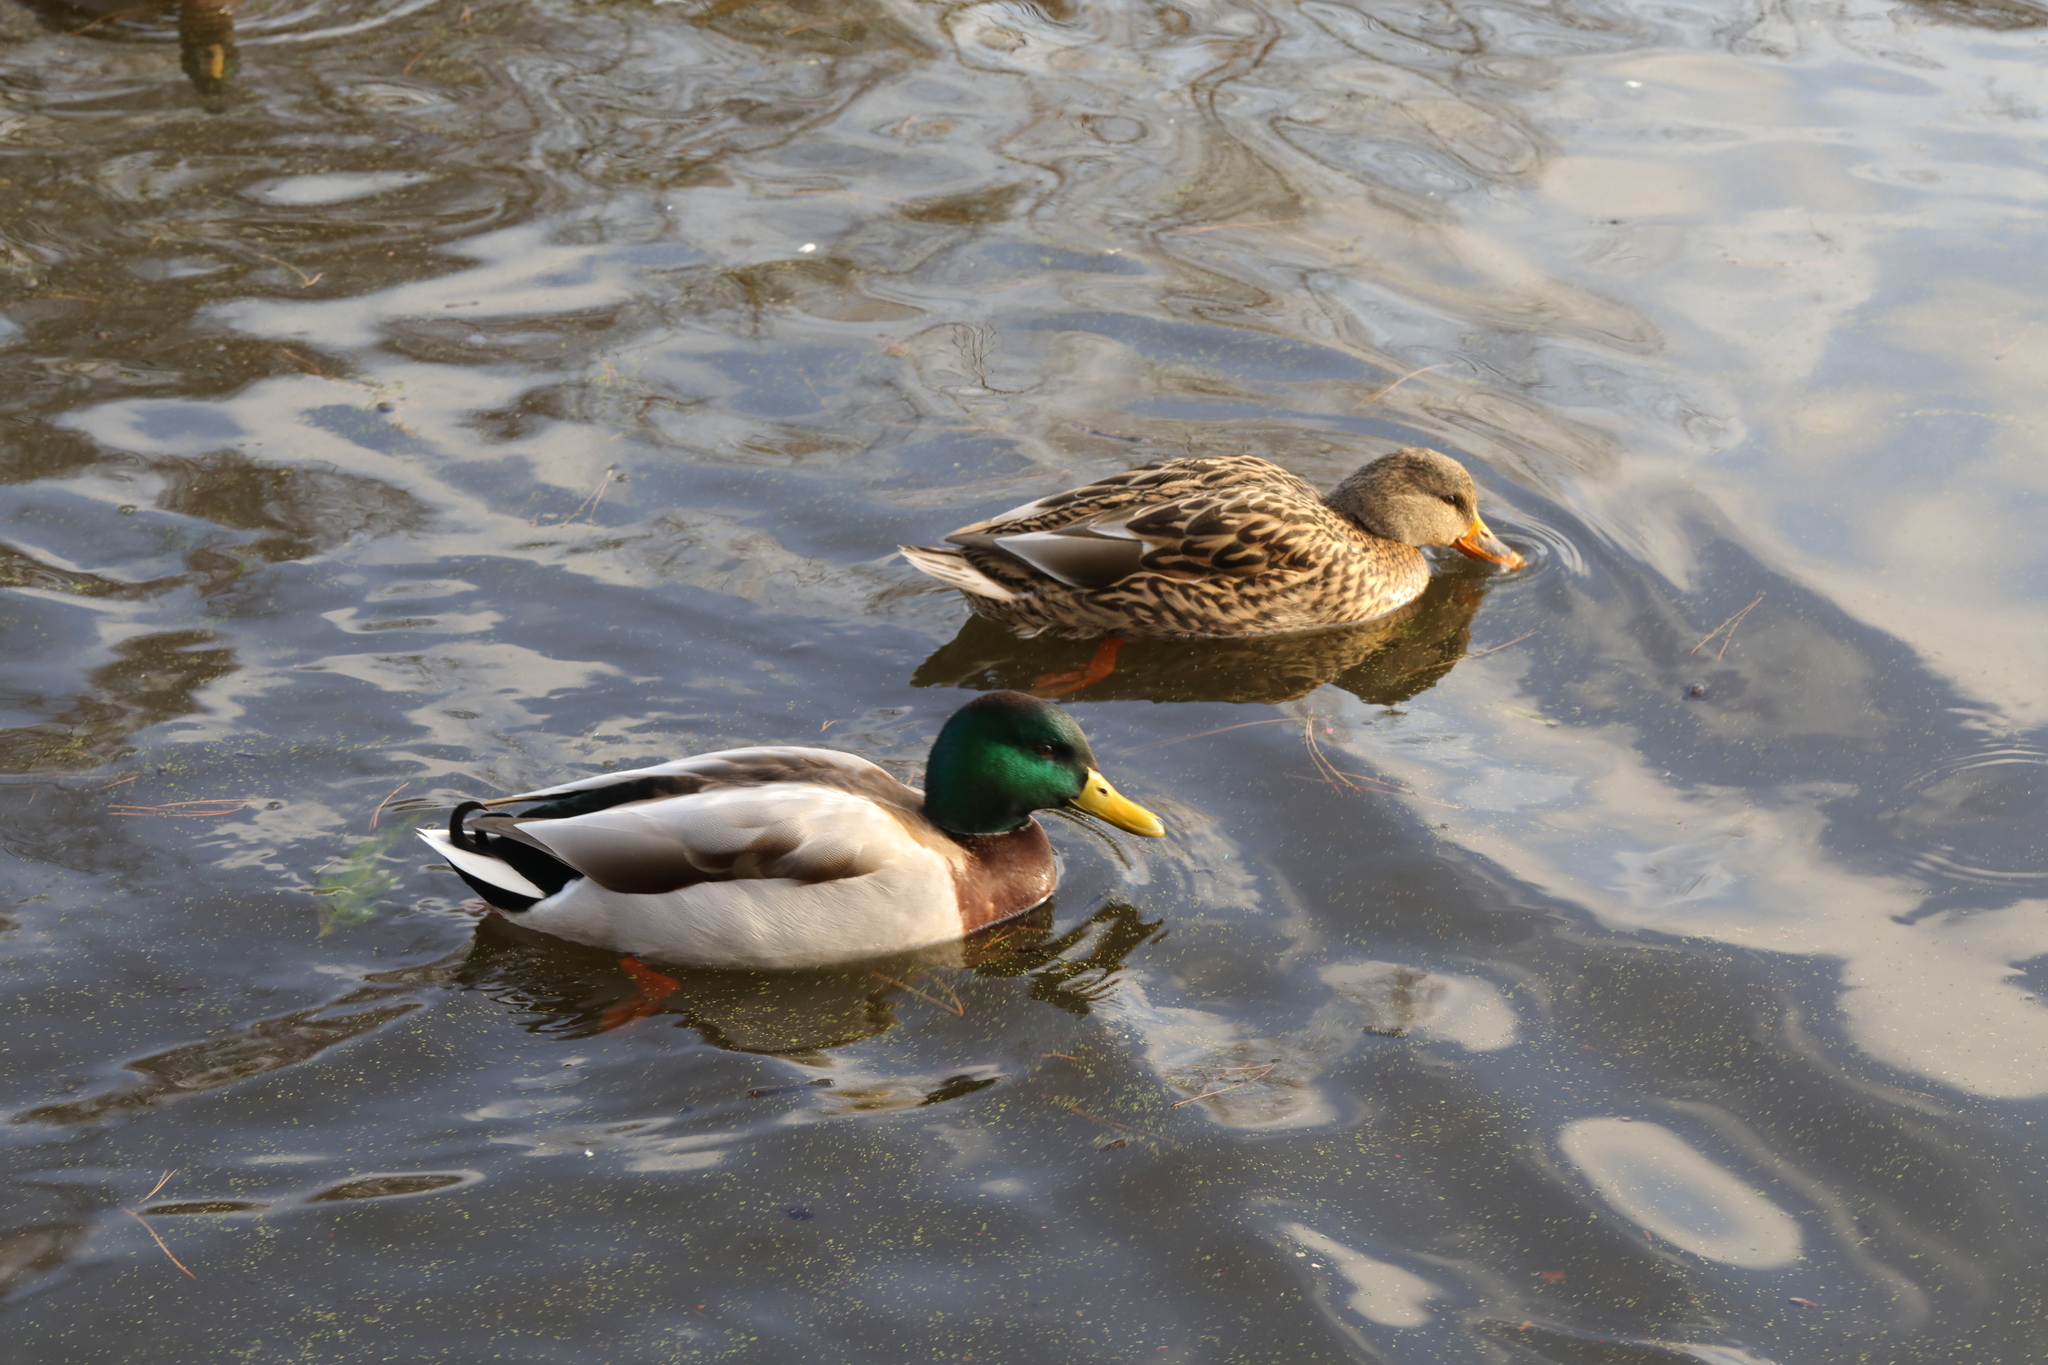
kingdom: Animalia
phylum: Chordata
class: Aves
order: Anseriformes
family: Anatidae
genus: Anas
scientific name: Anas platyrhynchos
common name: Mallard
